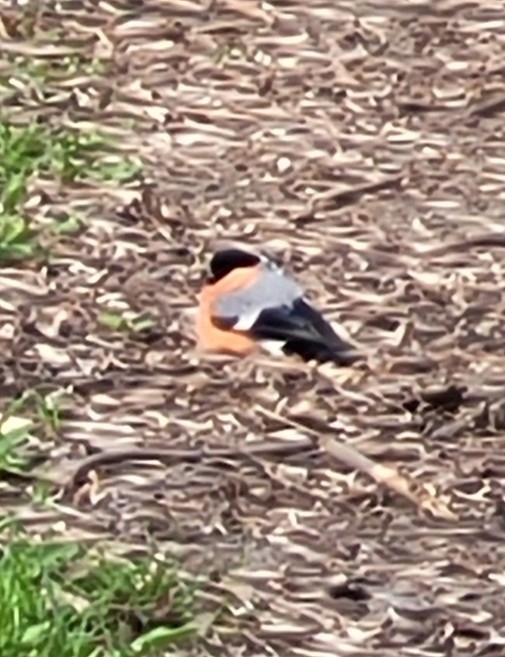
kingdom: Animalia
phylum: Chordata
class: Aves
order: Passeriformes
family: Fringillidae
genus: Pyrrhula
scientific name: Pyrrhula pyrrhula
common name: Eurasian bullfinch
